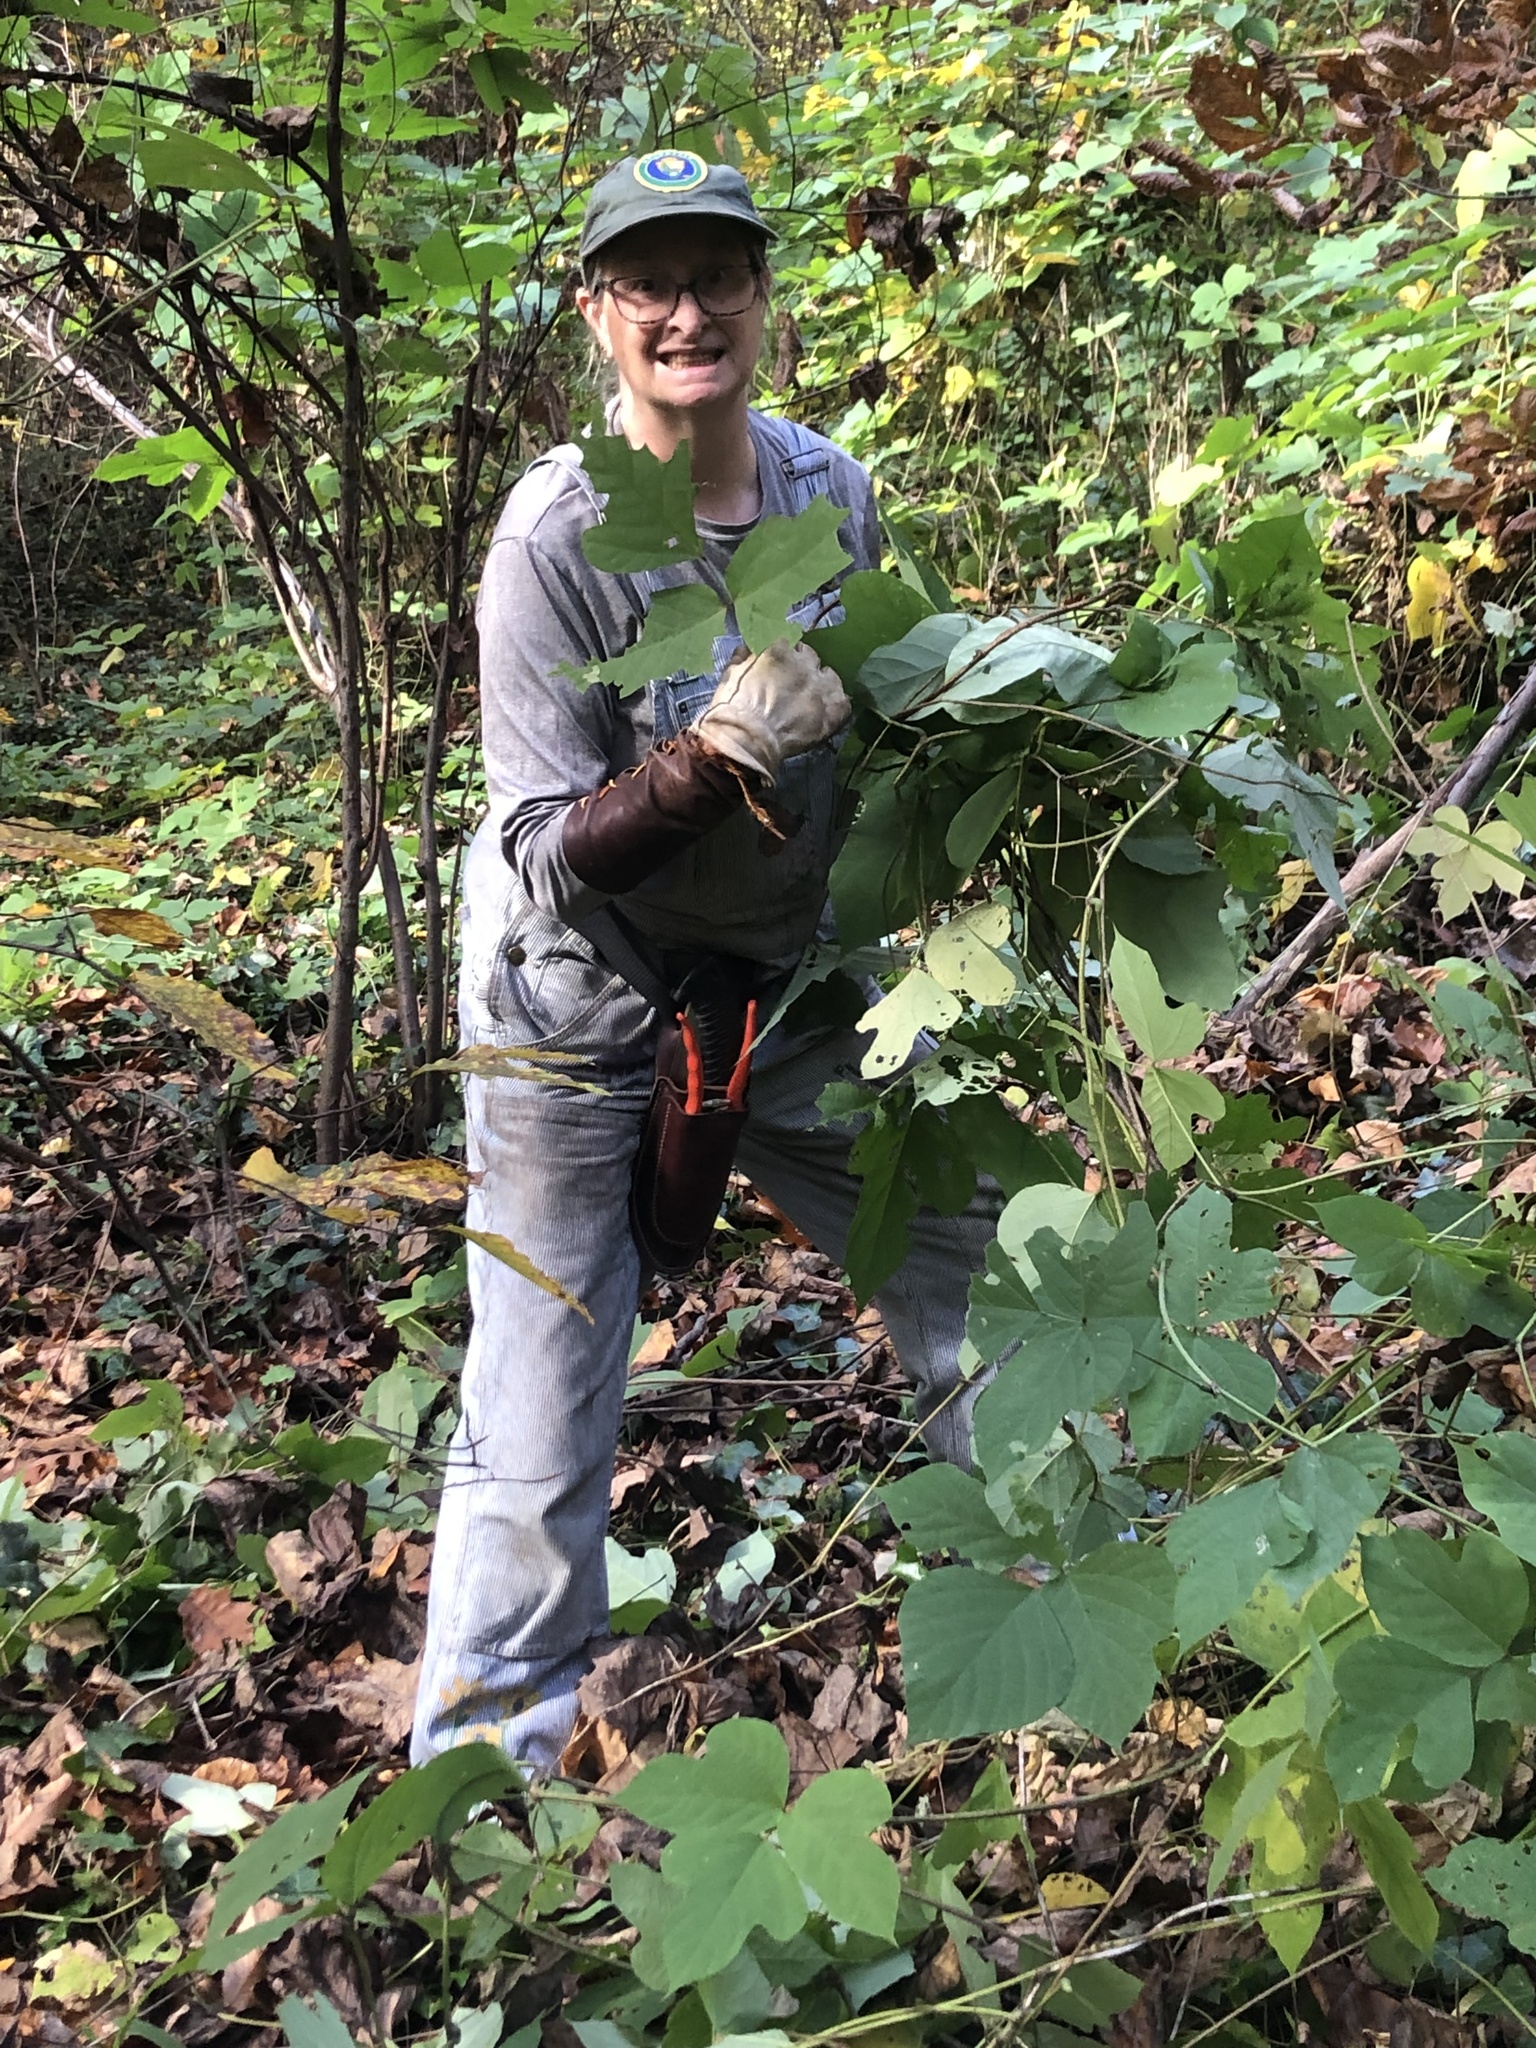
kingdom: Plantae
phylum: Tracheophyta
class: Magnoliopsida
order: Fabales
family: Fabaceae
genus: Pueraria
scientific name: Pueraria montana
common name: Kudzu
